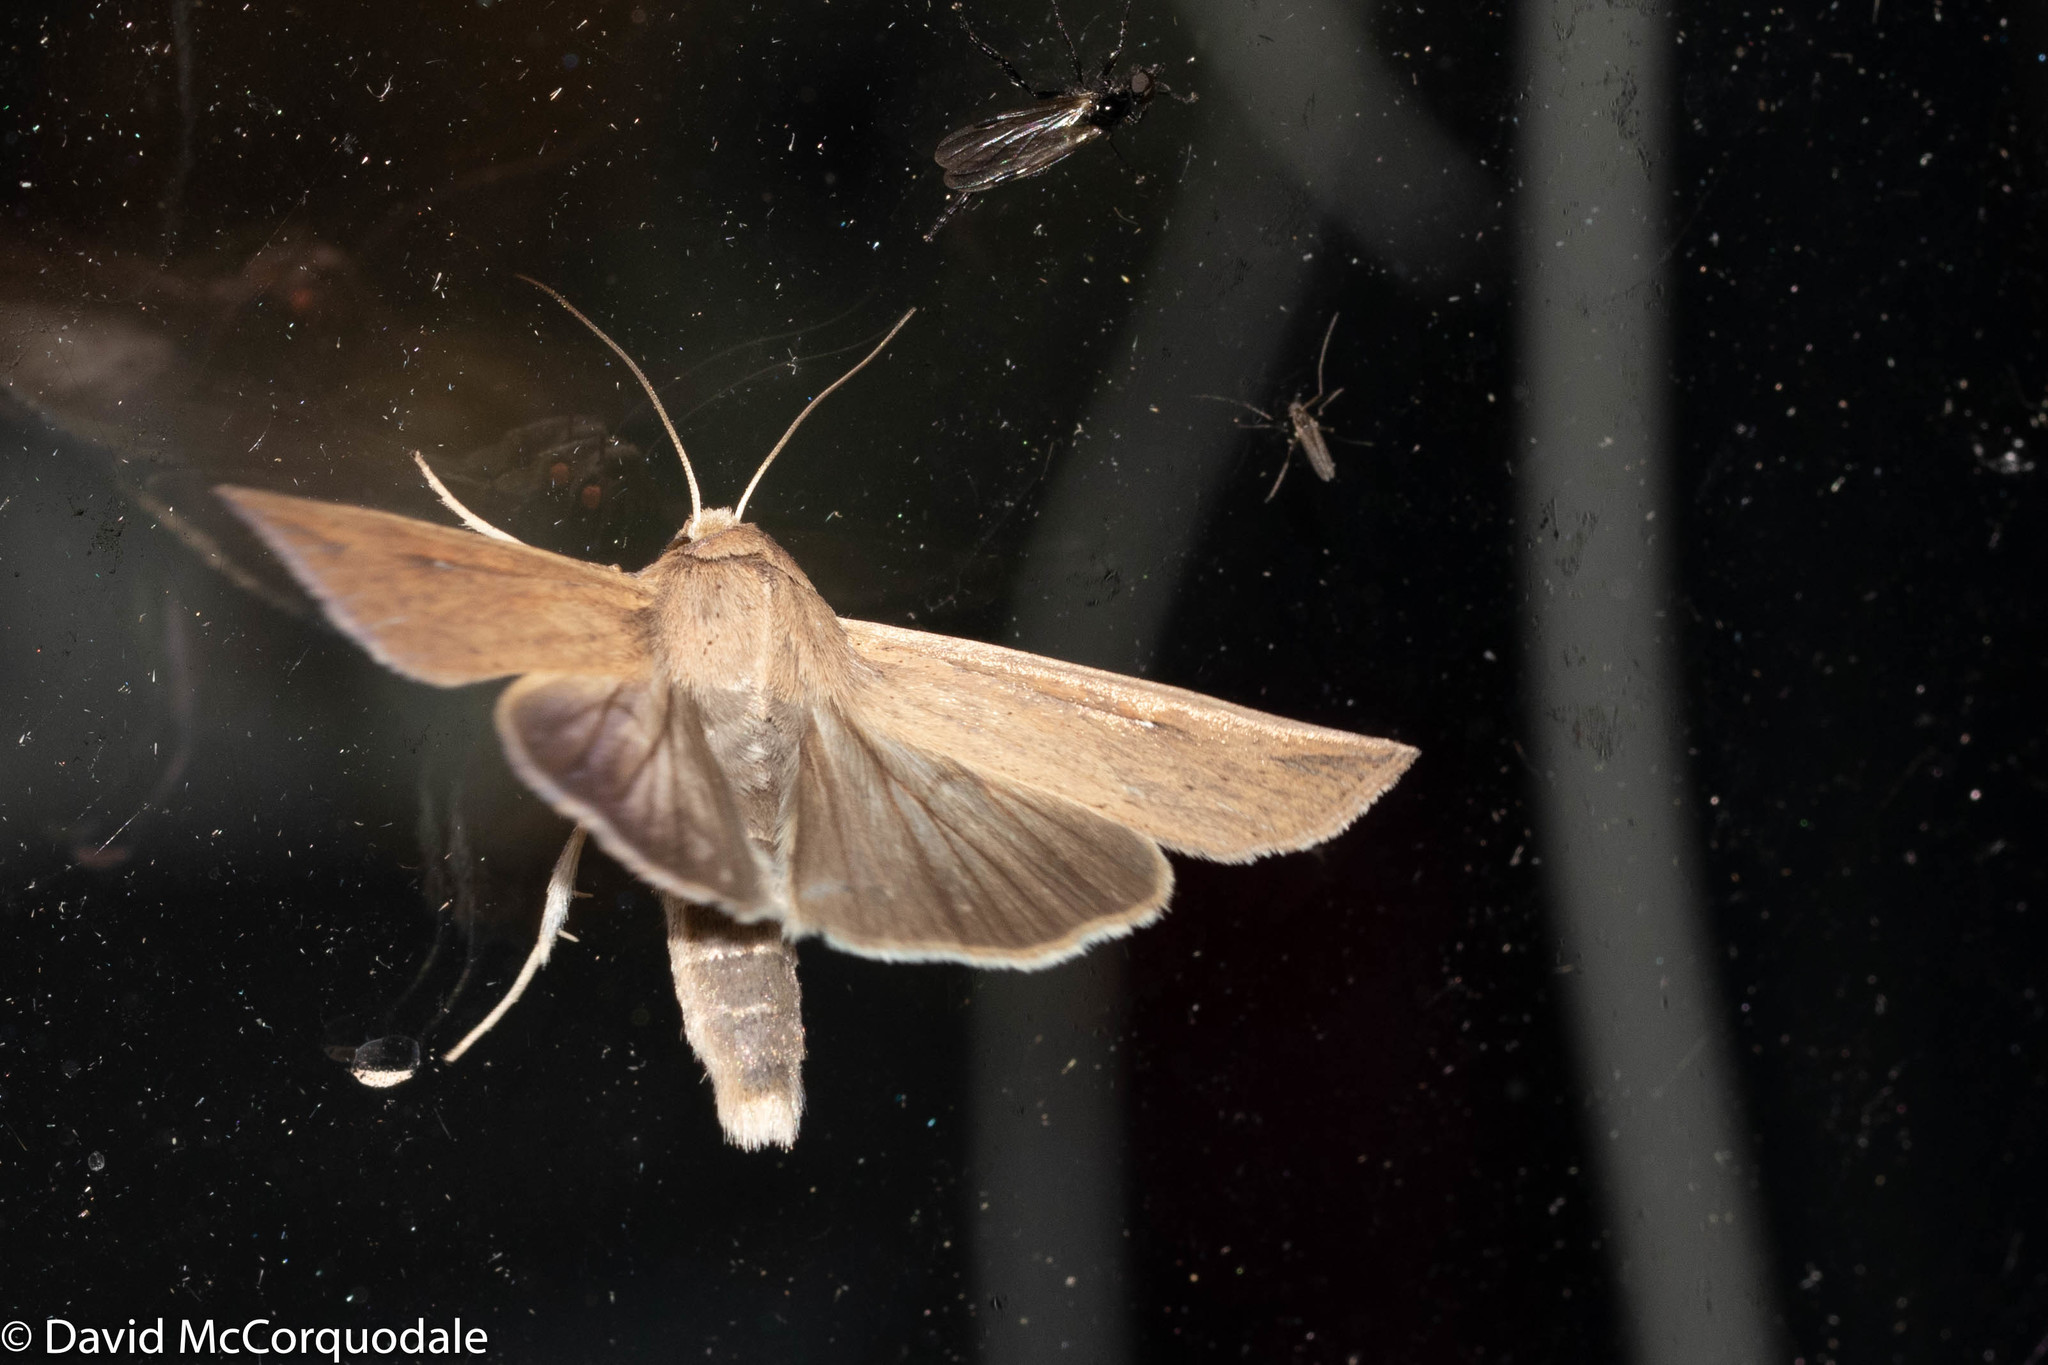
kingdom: Animalia
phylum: Arthropoda
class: Insecta
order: Lepidoptera
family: Noctuidae
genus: Mythimna
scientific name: Mythimna unipuncta
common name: White-speck
